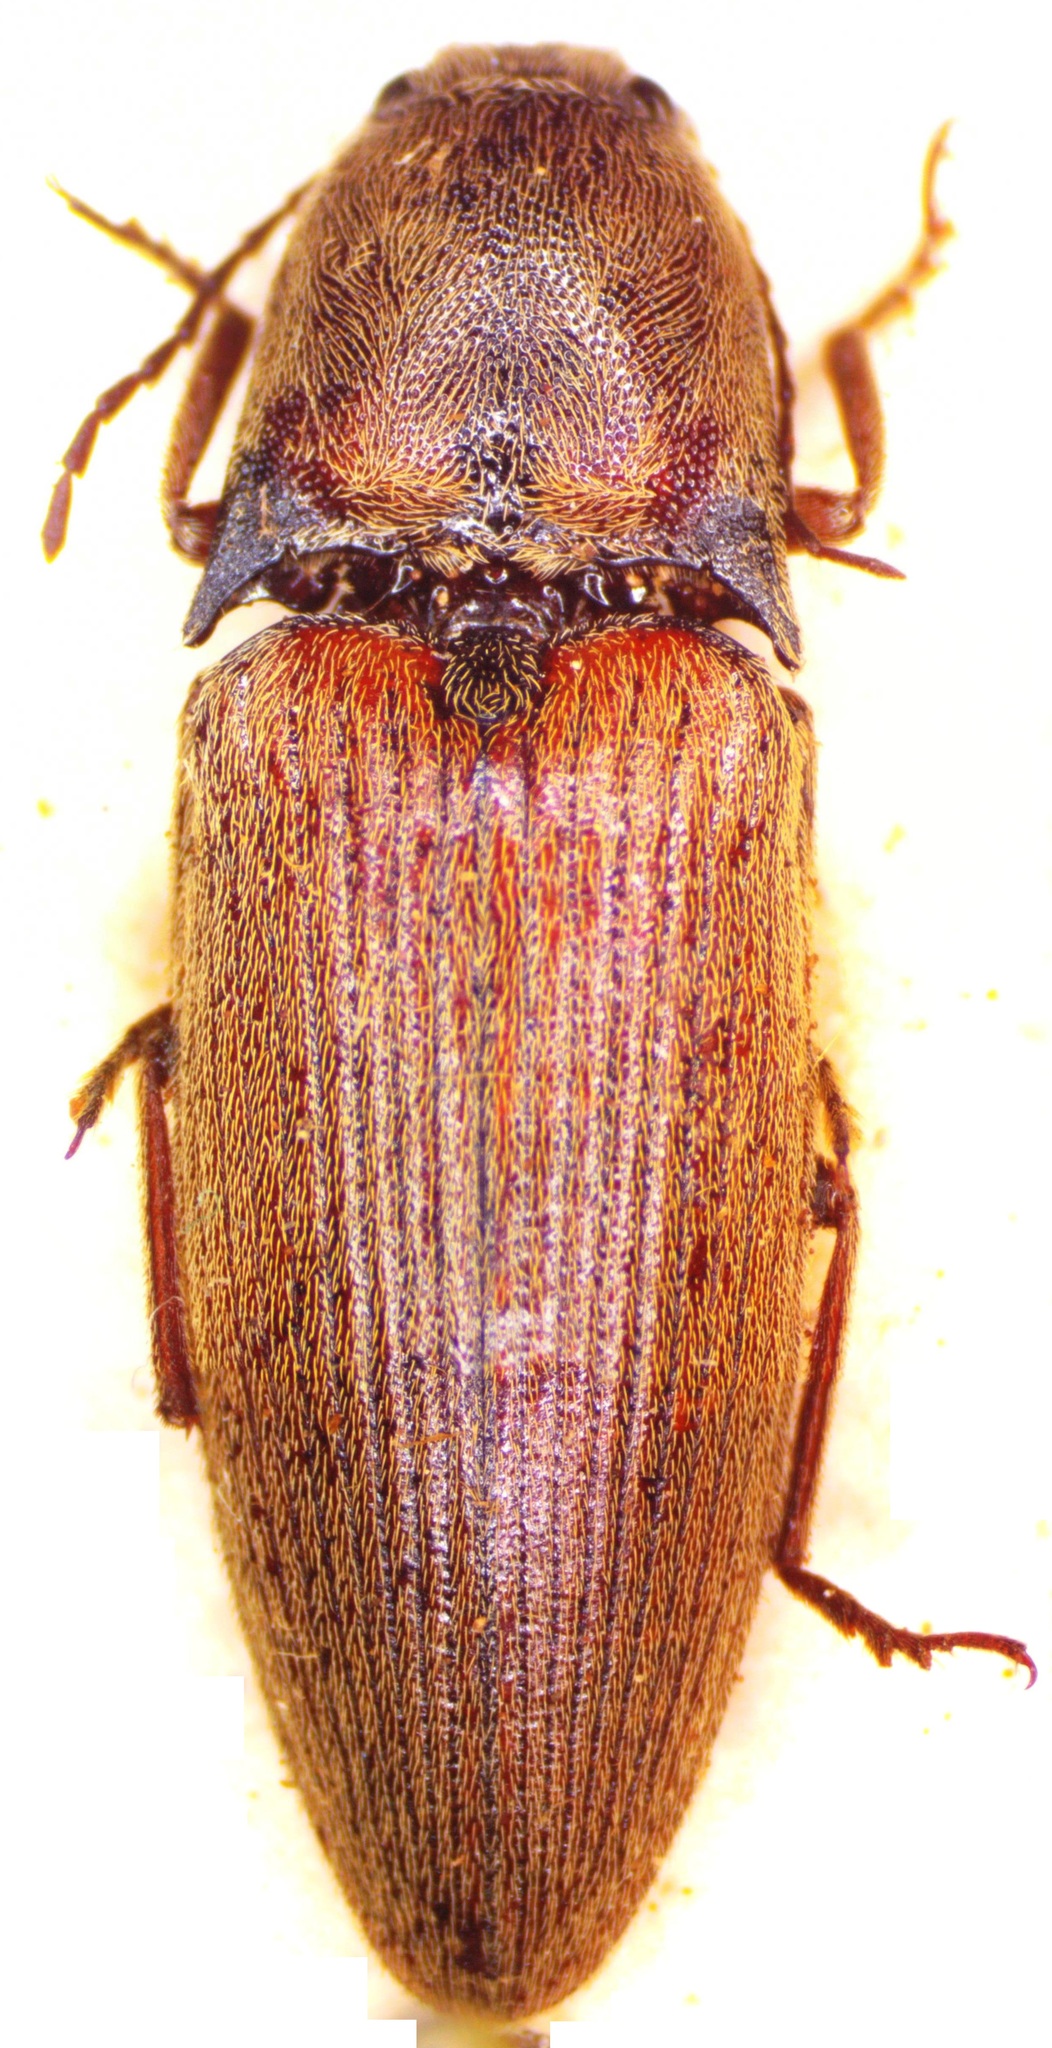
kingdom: Animalia
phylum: Arthropoda
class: Insecta
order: Coleoptera
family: Elateridae
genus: Propsephus
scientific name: Propsephus
